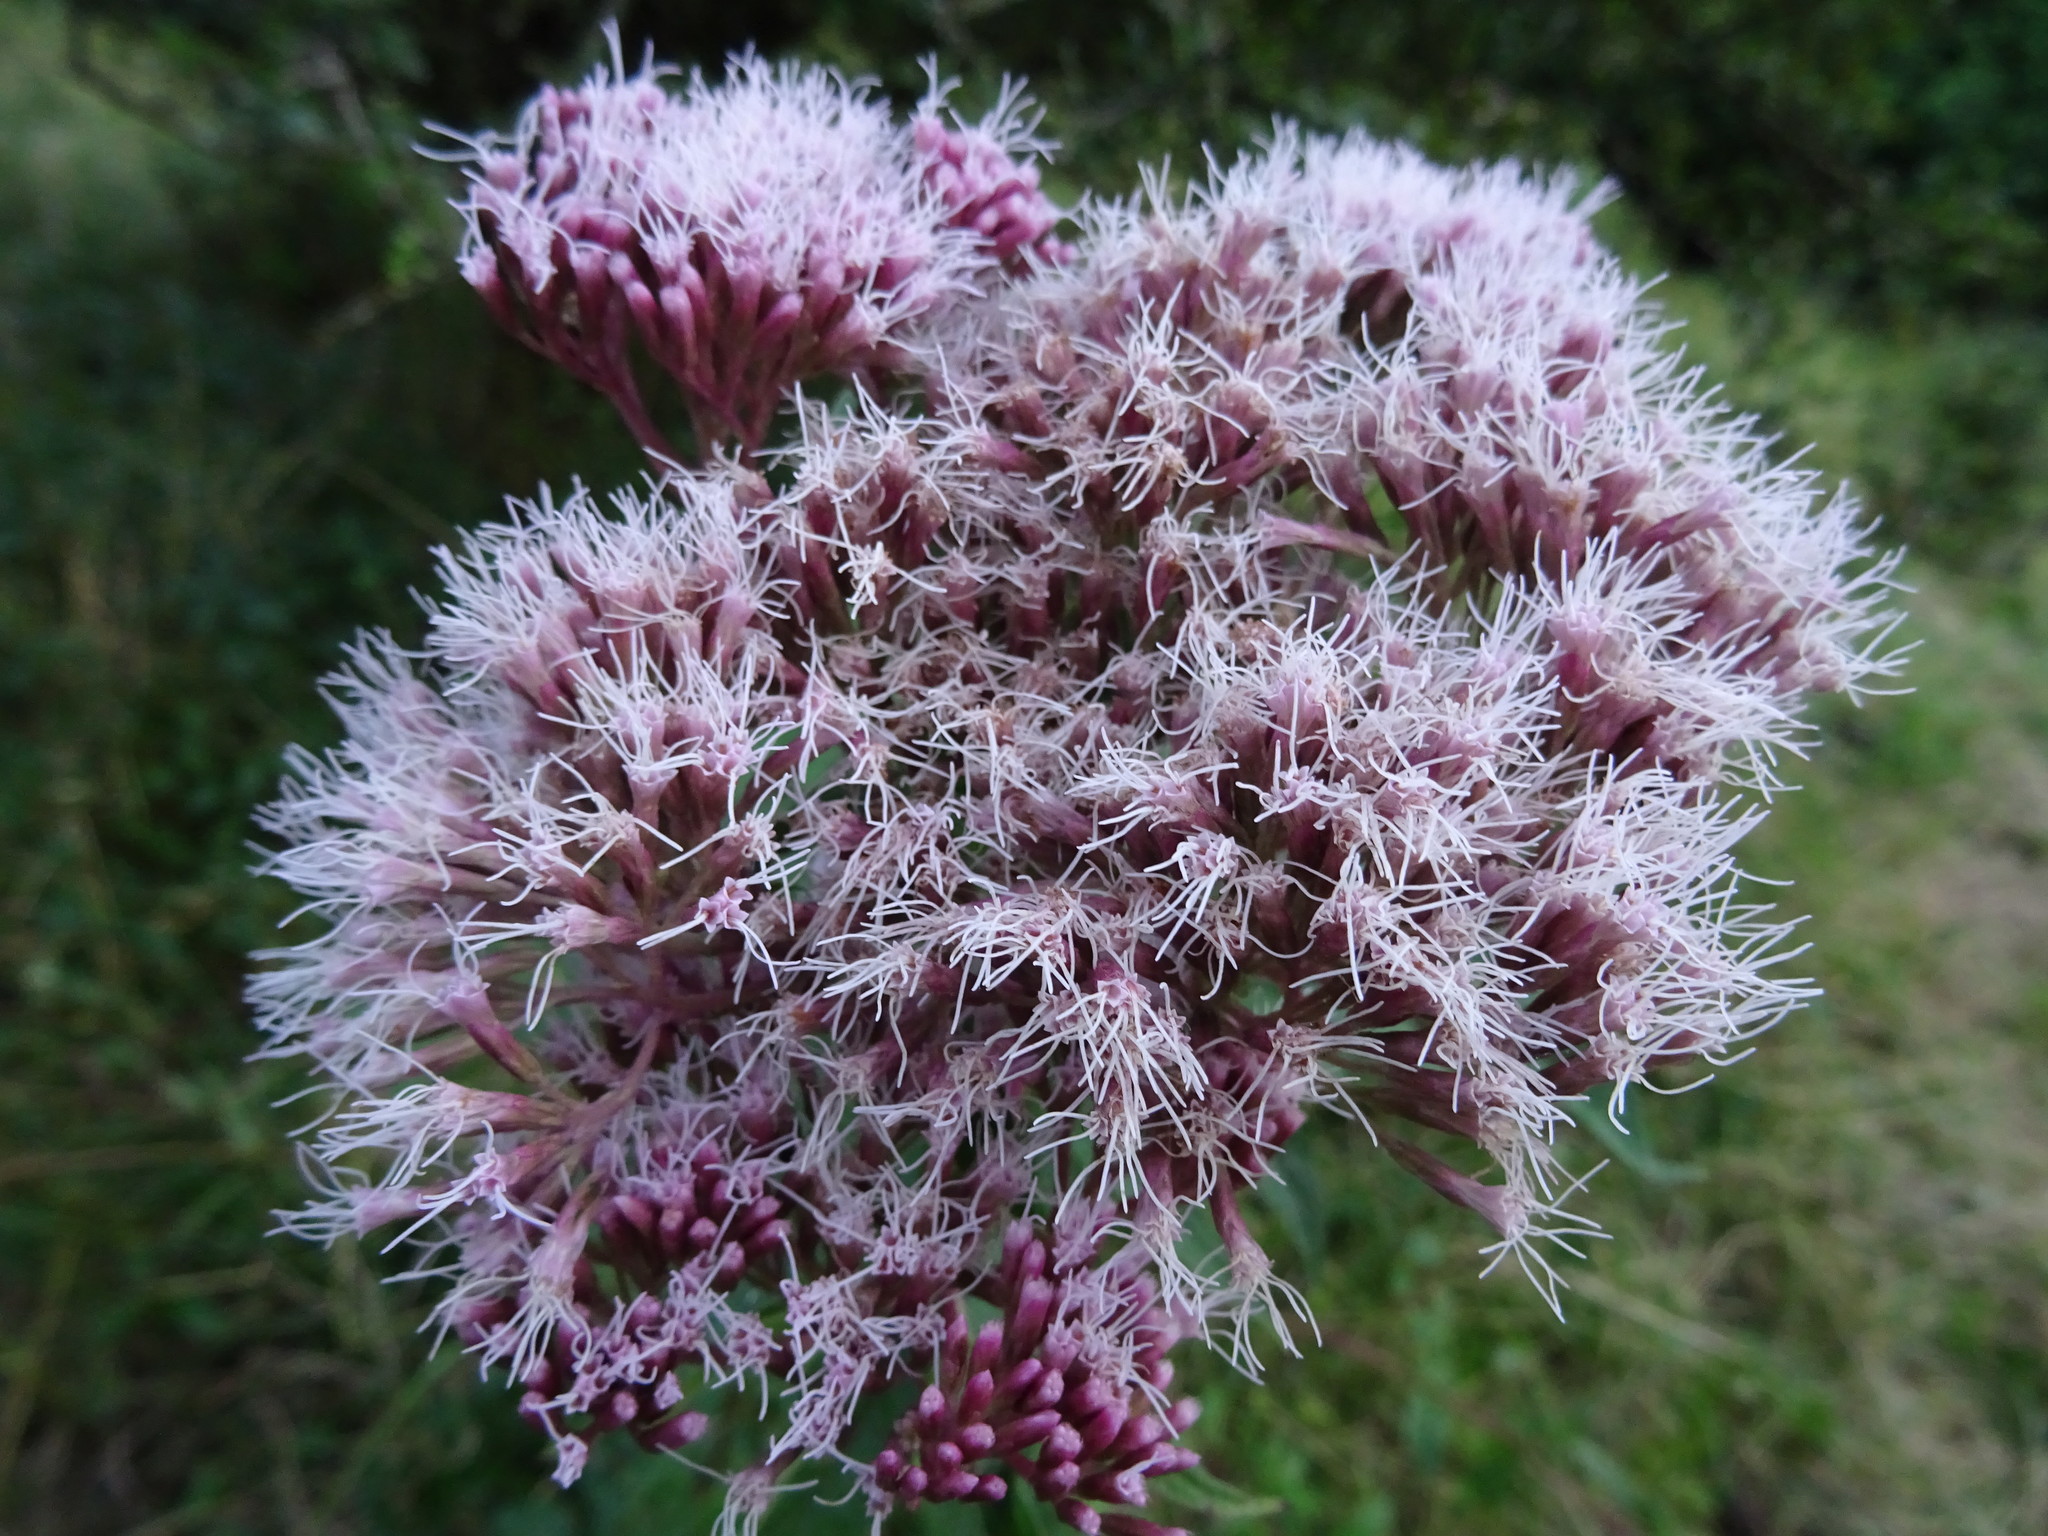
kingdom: Plantae
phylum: Tracheophyta
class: Magnoliopsida
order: Asterales
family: Asteraceae
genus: Eupatorium
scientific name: Eupatorium cannabinum
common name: Hemp-agrimony
